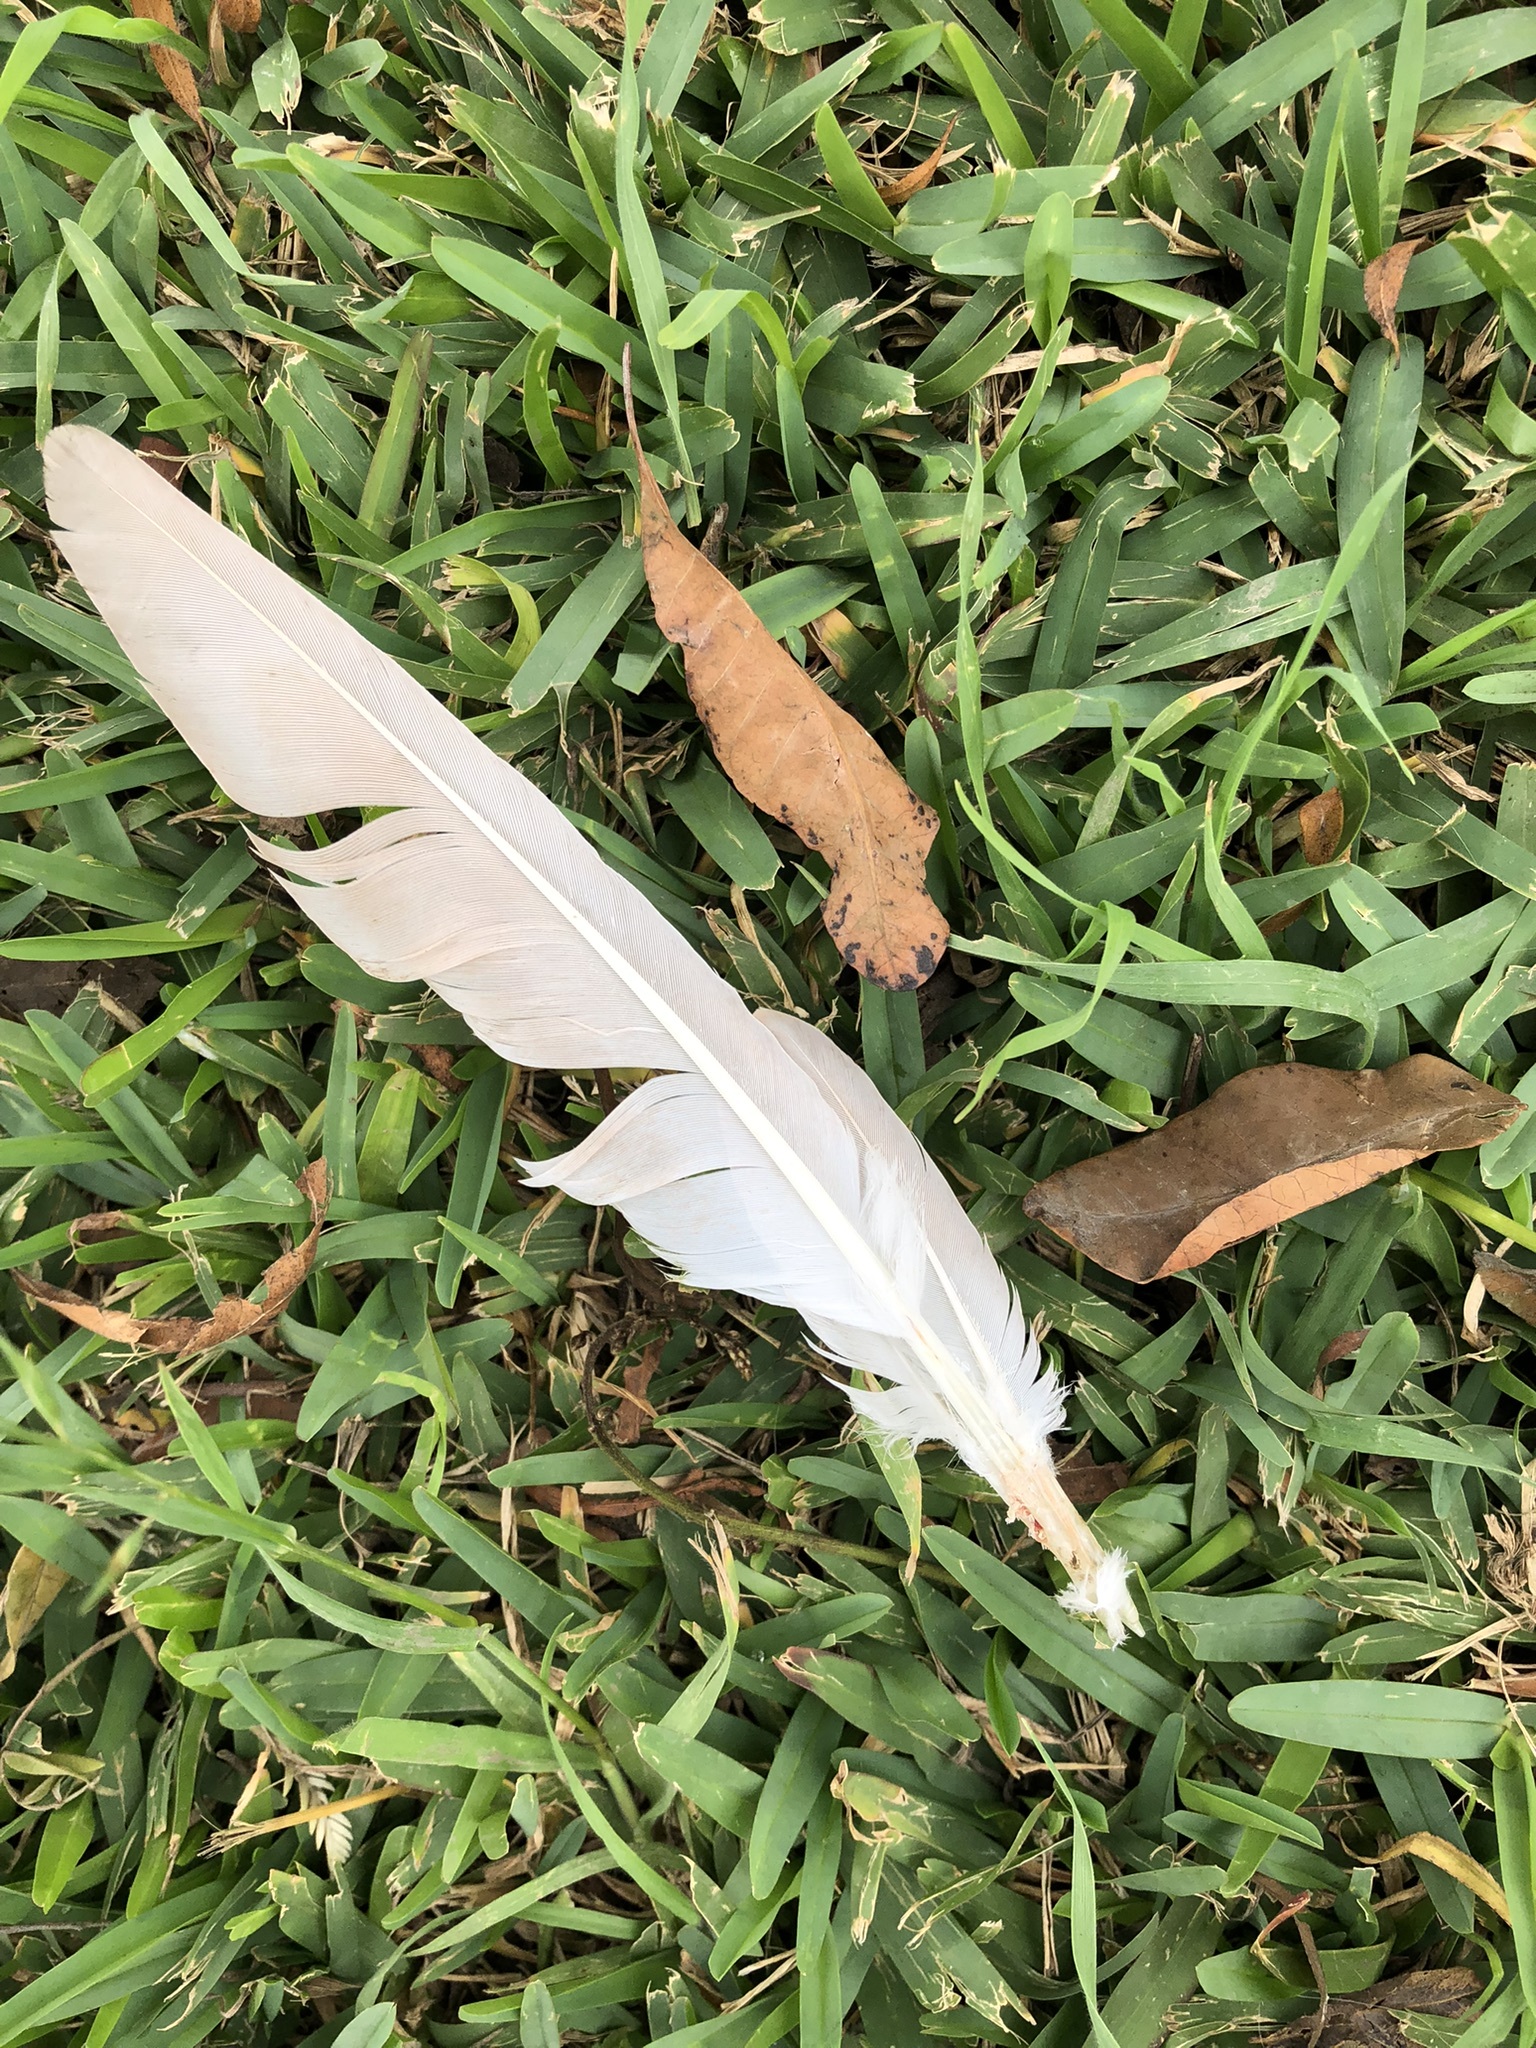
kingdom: Animalia
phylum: Chordata
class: Aves
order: Columbiformes
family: Columbidae
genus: Columba
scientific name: Columba livia
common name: Rock pigeon
